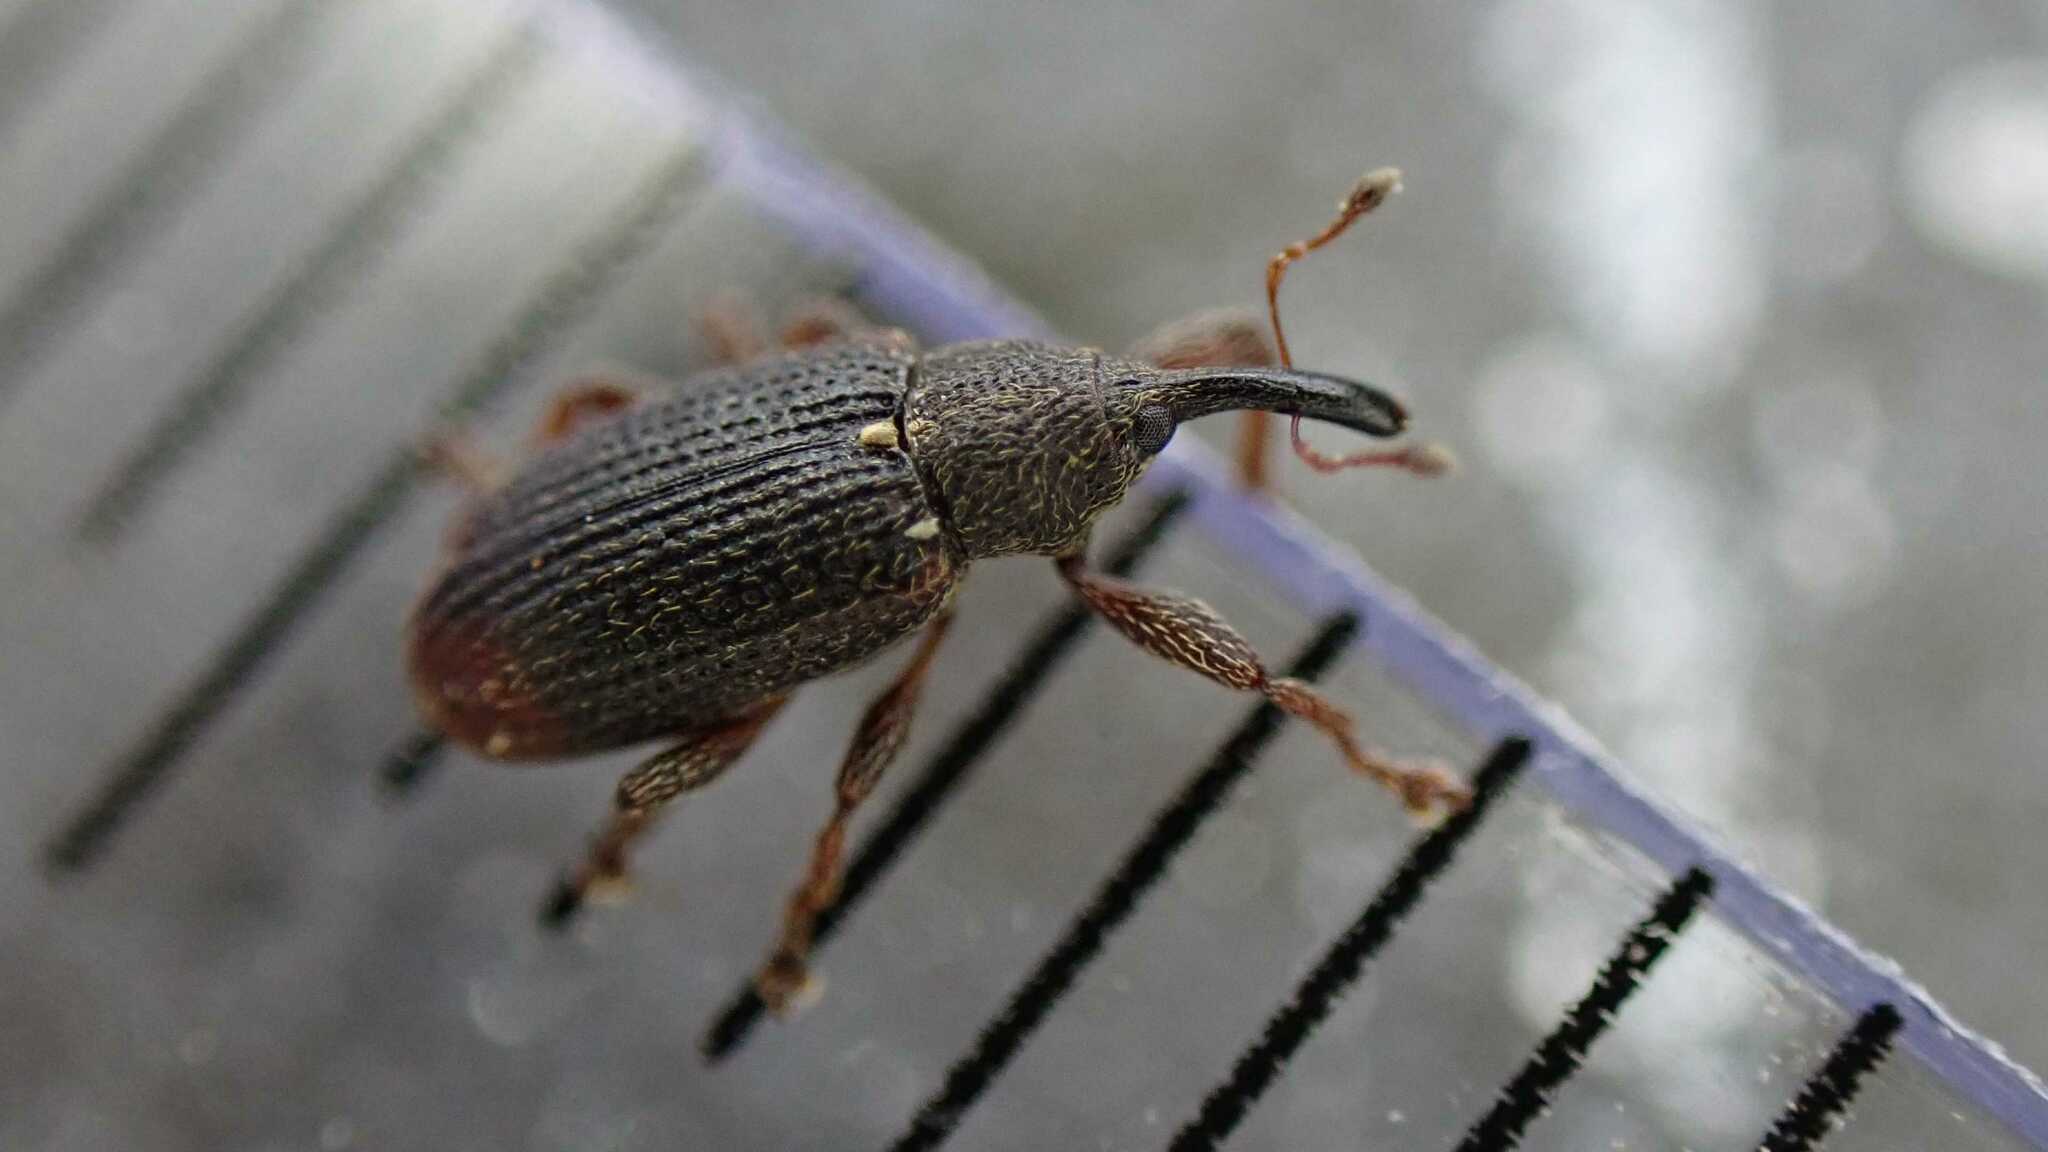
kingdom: Animalia
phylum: Arthropoda
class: Insecta
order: Coleoptera
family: Curculionidae
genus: Bradybatus
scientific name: Bradybatus kellneri
